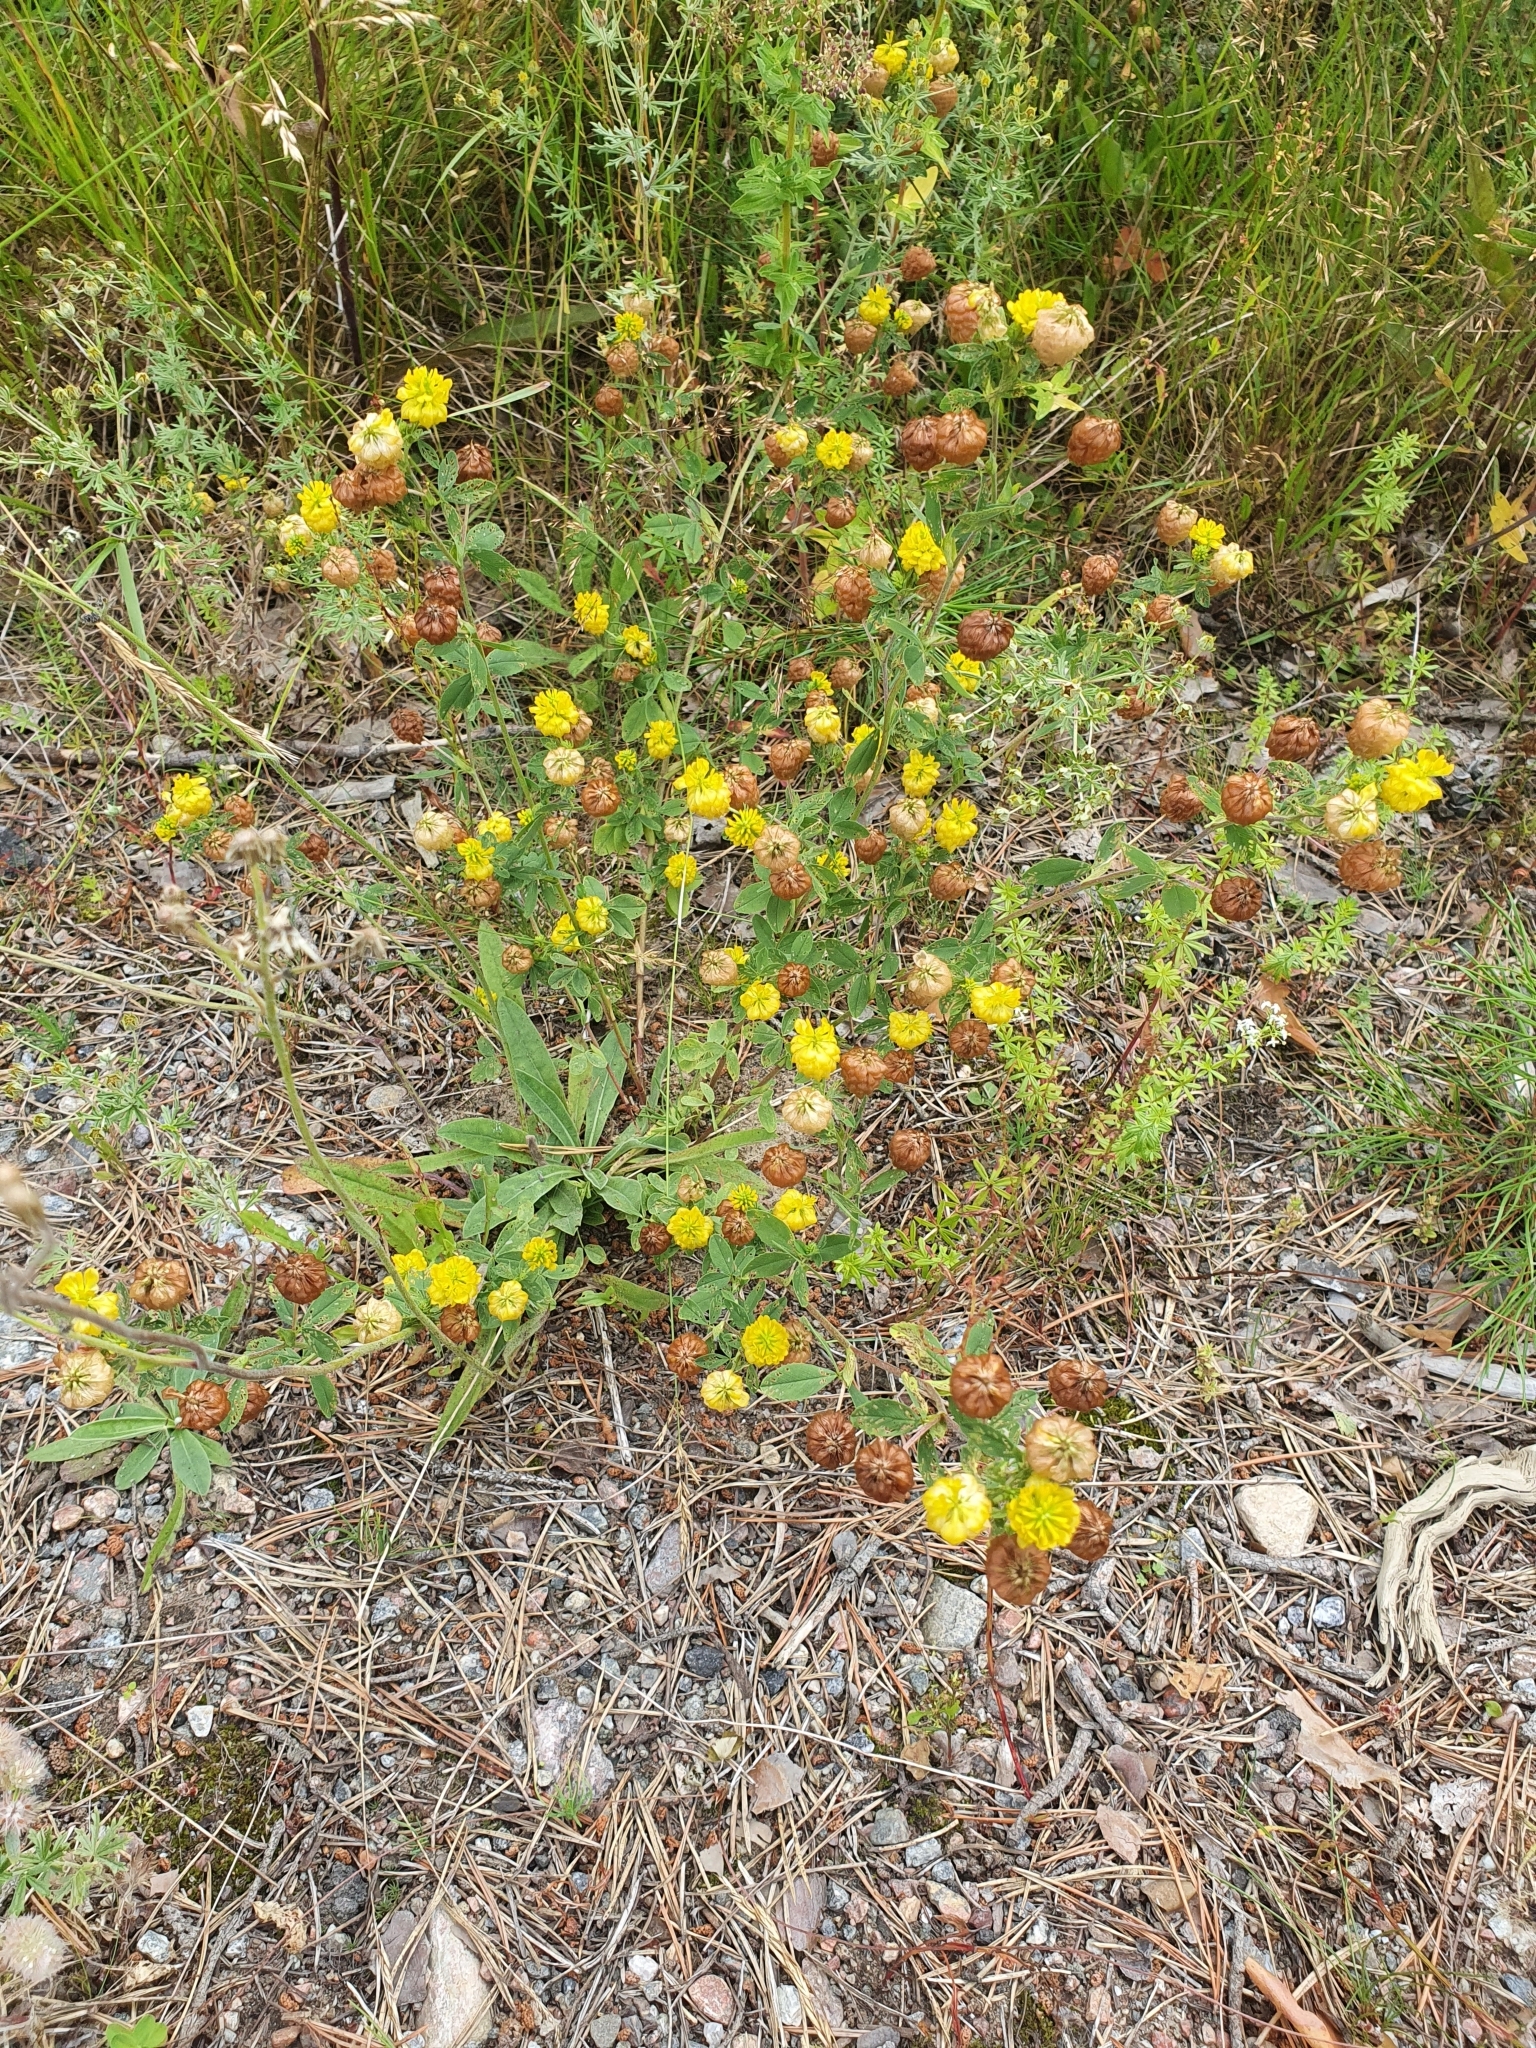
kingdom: Plantae
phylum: Tracheophyta
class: Magnoliopsida
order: Fabales
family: Fabaceae
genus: Trifolium
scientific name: Trifolium aureum
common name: Golden clover
